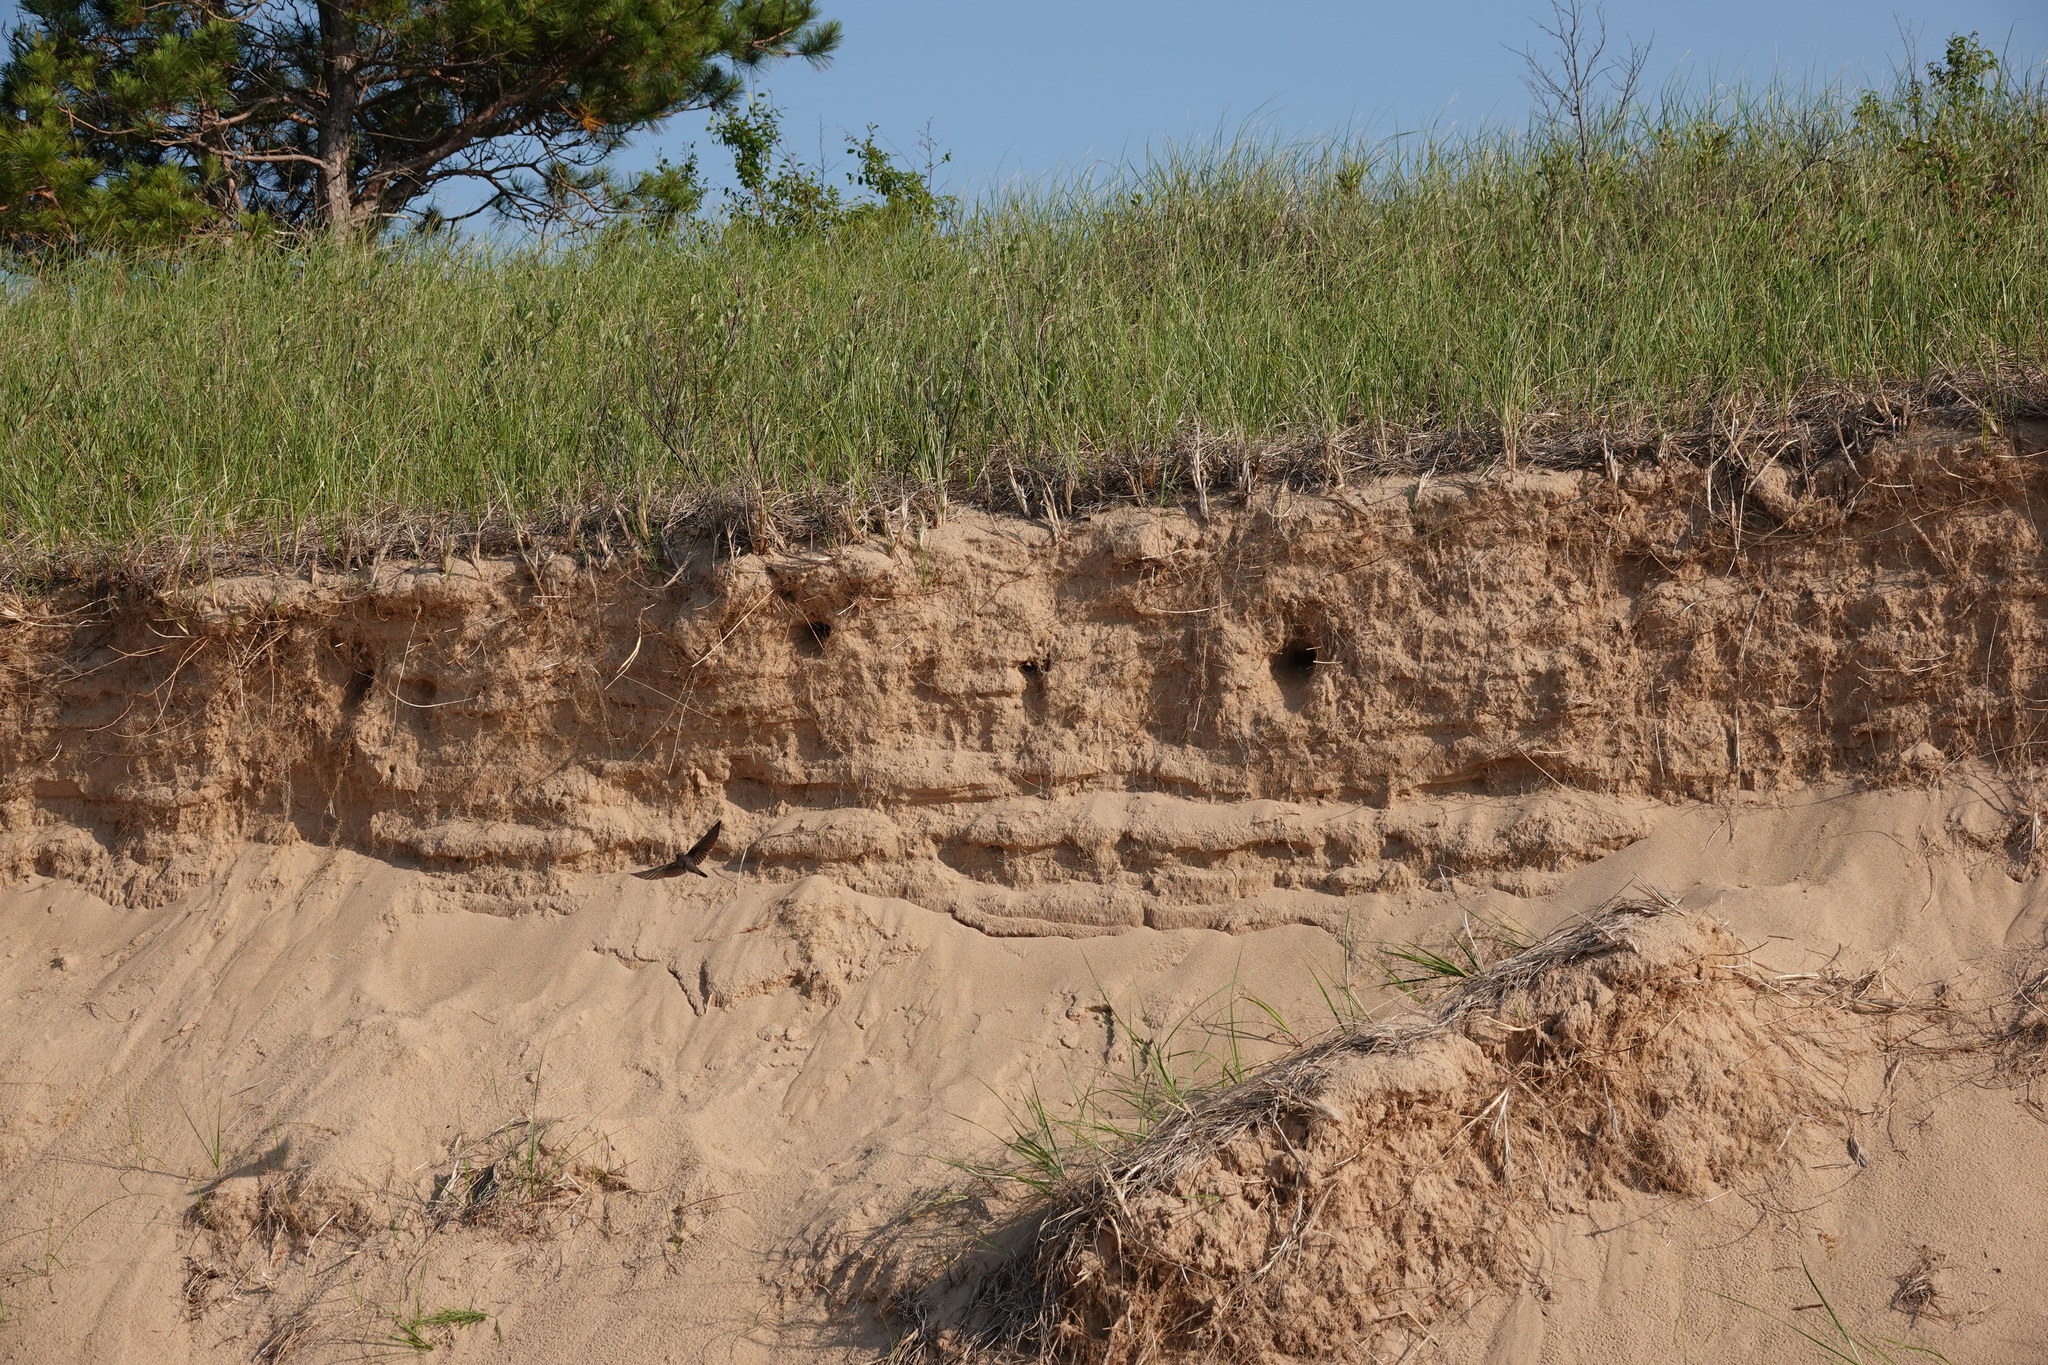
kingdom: Animalia
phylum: Chordata
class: Aves
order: Passeriformes
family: Hirundinidae
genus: Riparia
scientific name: Riparia riparia
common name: Sand martin
